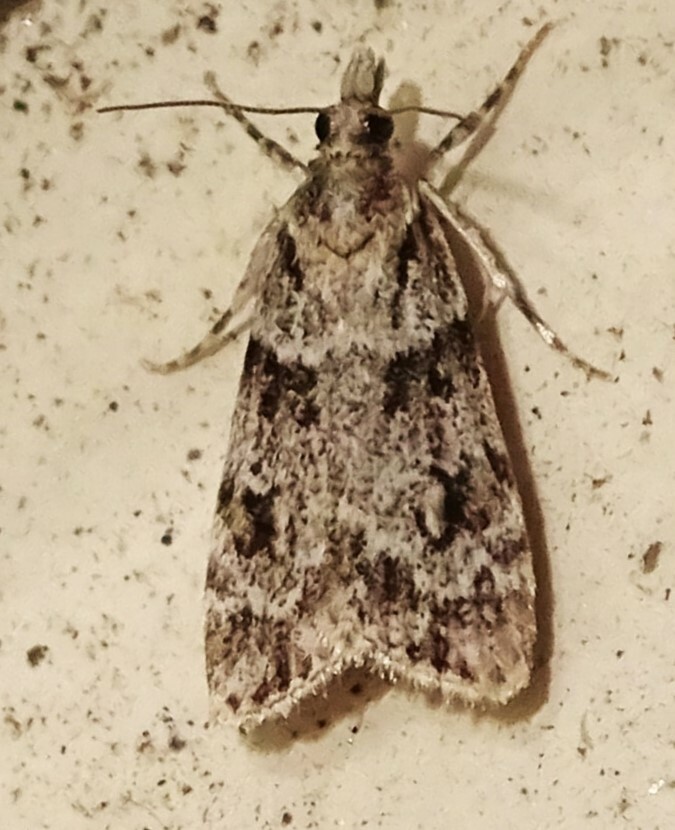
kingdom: Animalia
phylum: Arthropoda
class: Insecta
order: Lepidoptera
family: Crambidae
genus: Scoparia
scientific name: Scoparia biplagialis
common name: Double-striped scoparia moth
